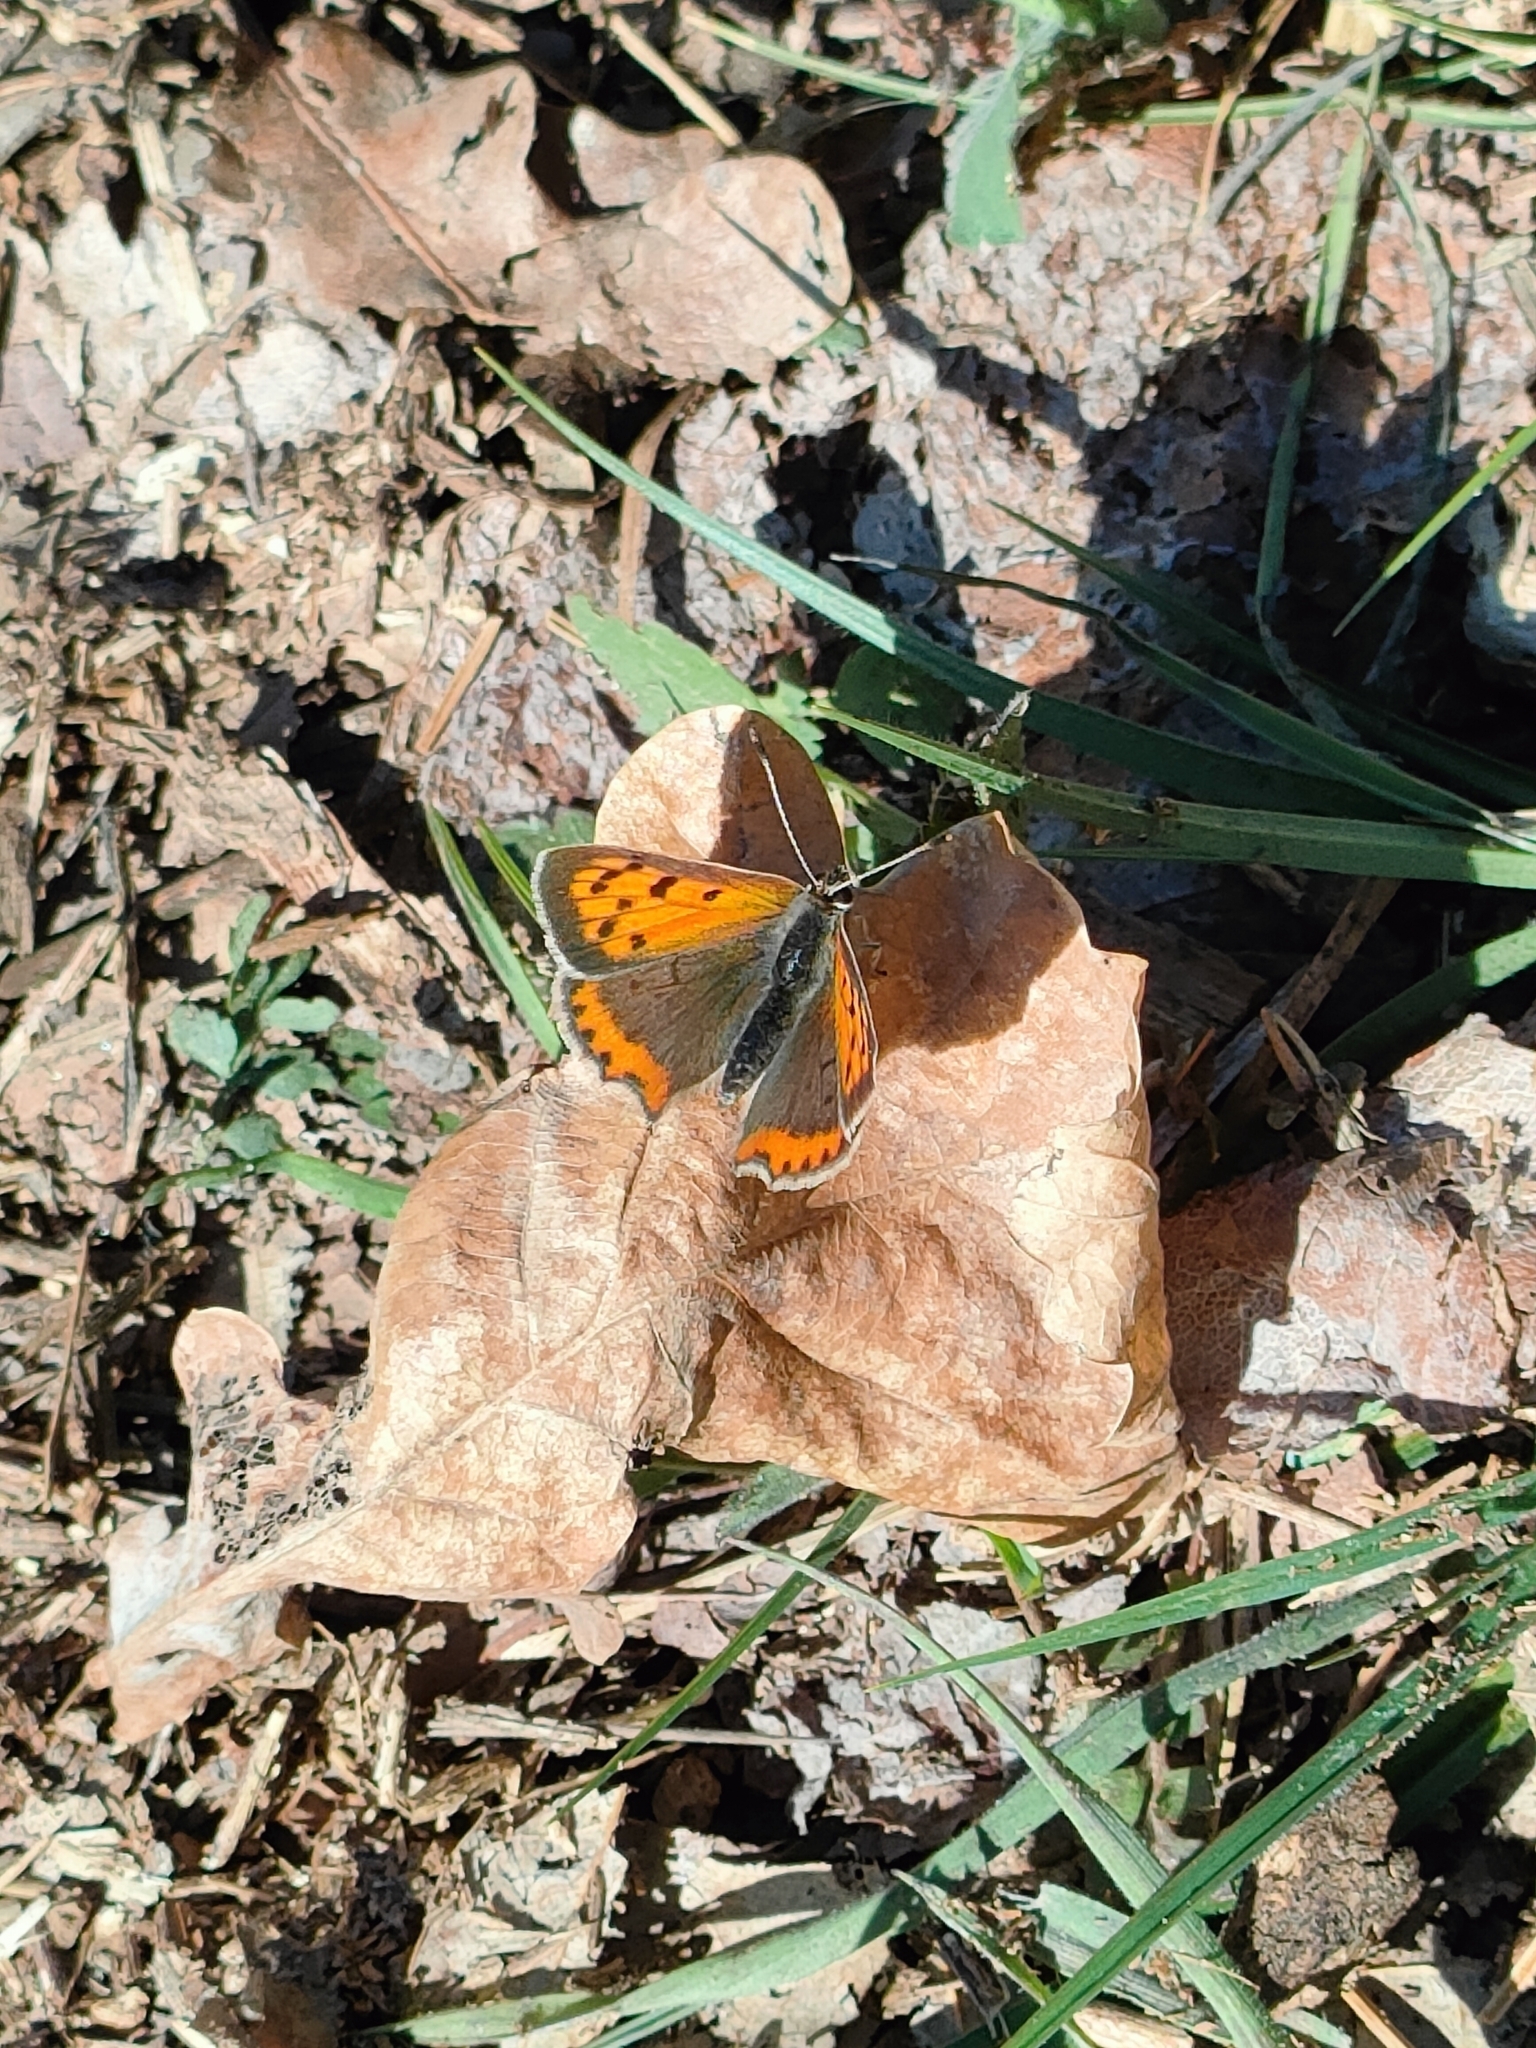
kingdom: Animalia
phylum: Arthropoda
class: Insecta
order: Lepidoptera
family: Lycaenidae
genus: Lycaena
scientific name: Lycaena phlaeas
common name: Small copper
